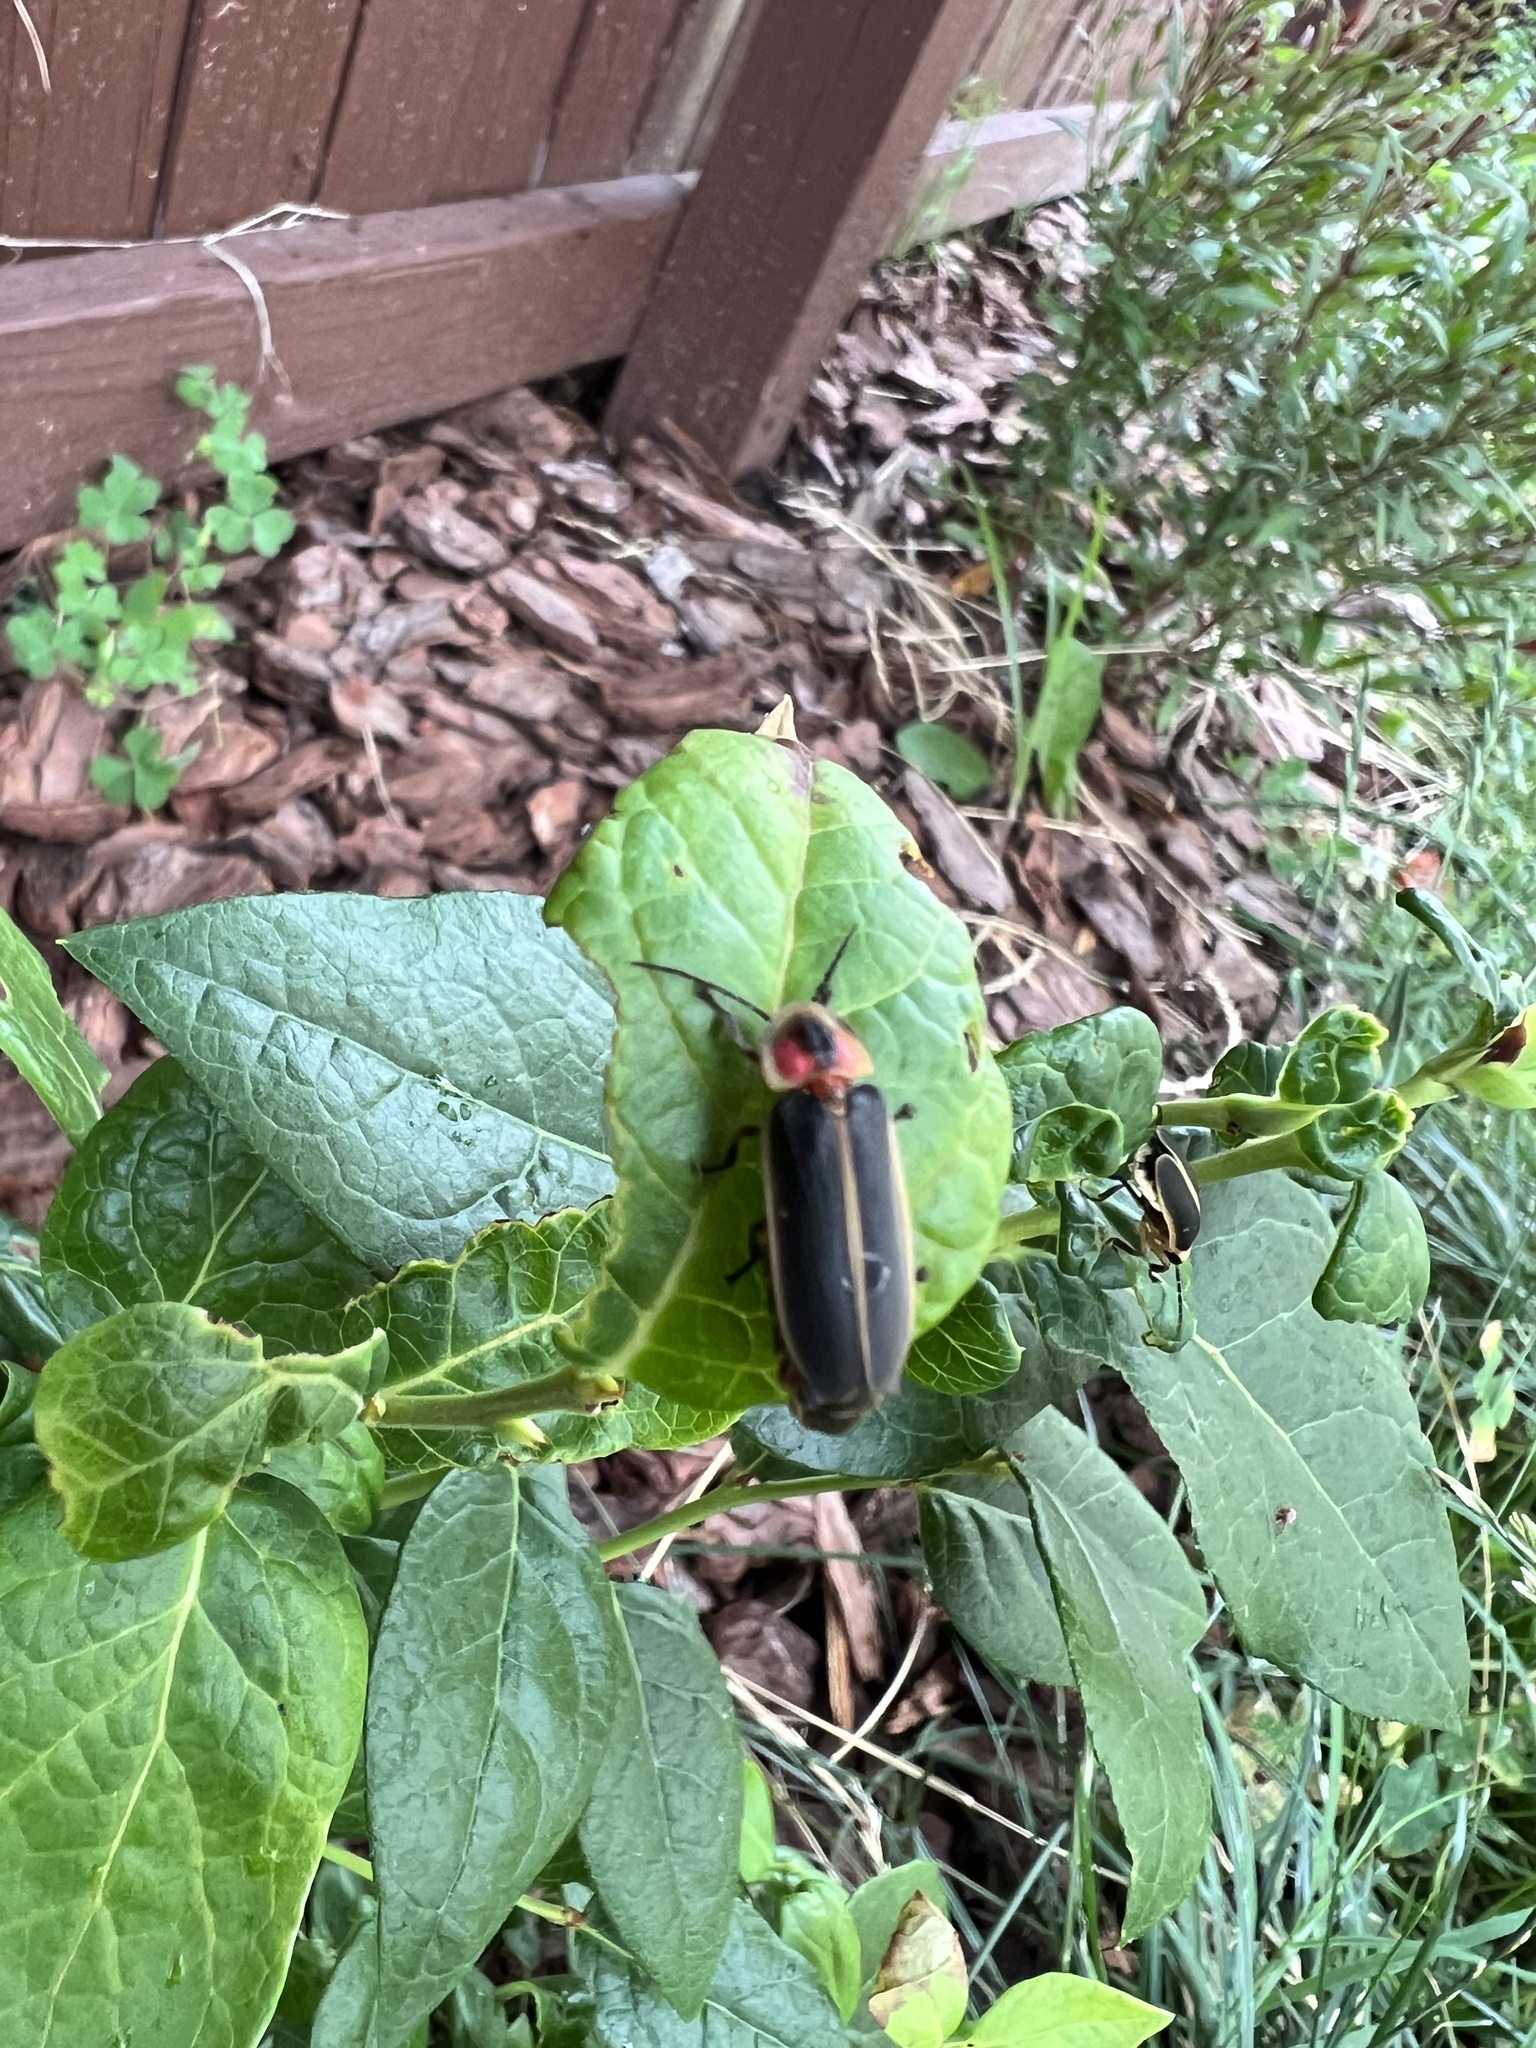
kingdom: Animalia
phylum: Arthropoda
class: Insecta
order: Coleoptera
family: Lampyridae
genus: Photinus
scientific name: Photinus pyralis
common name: Big dipper firefly
